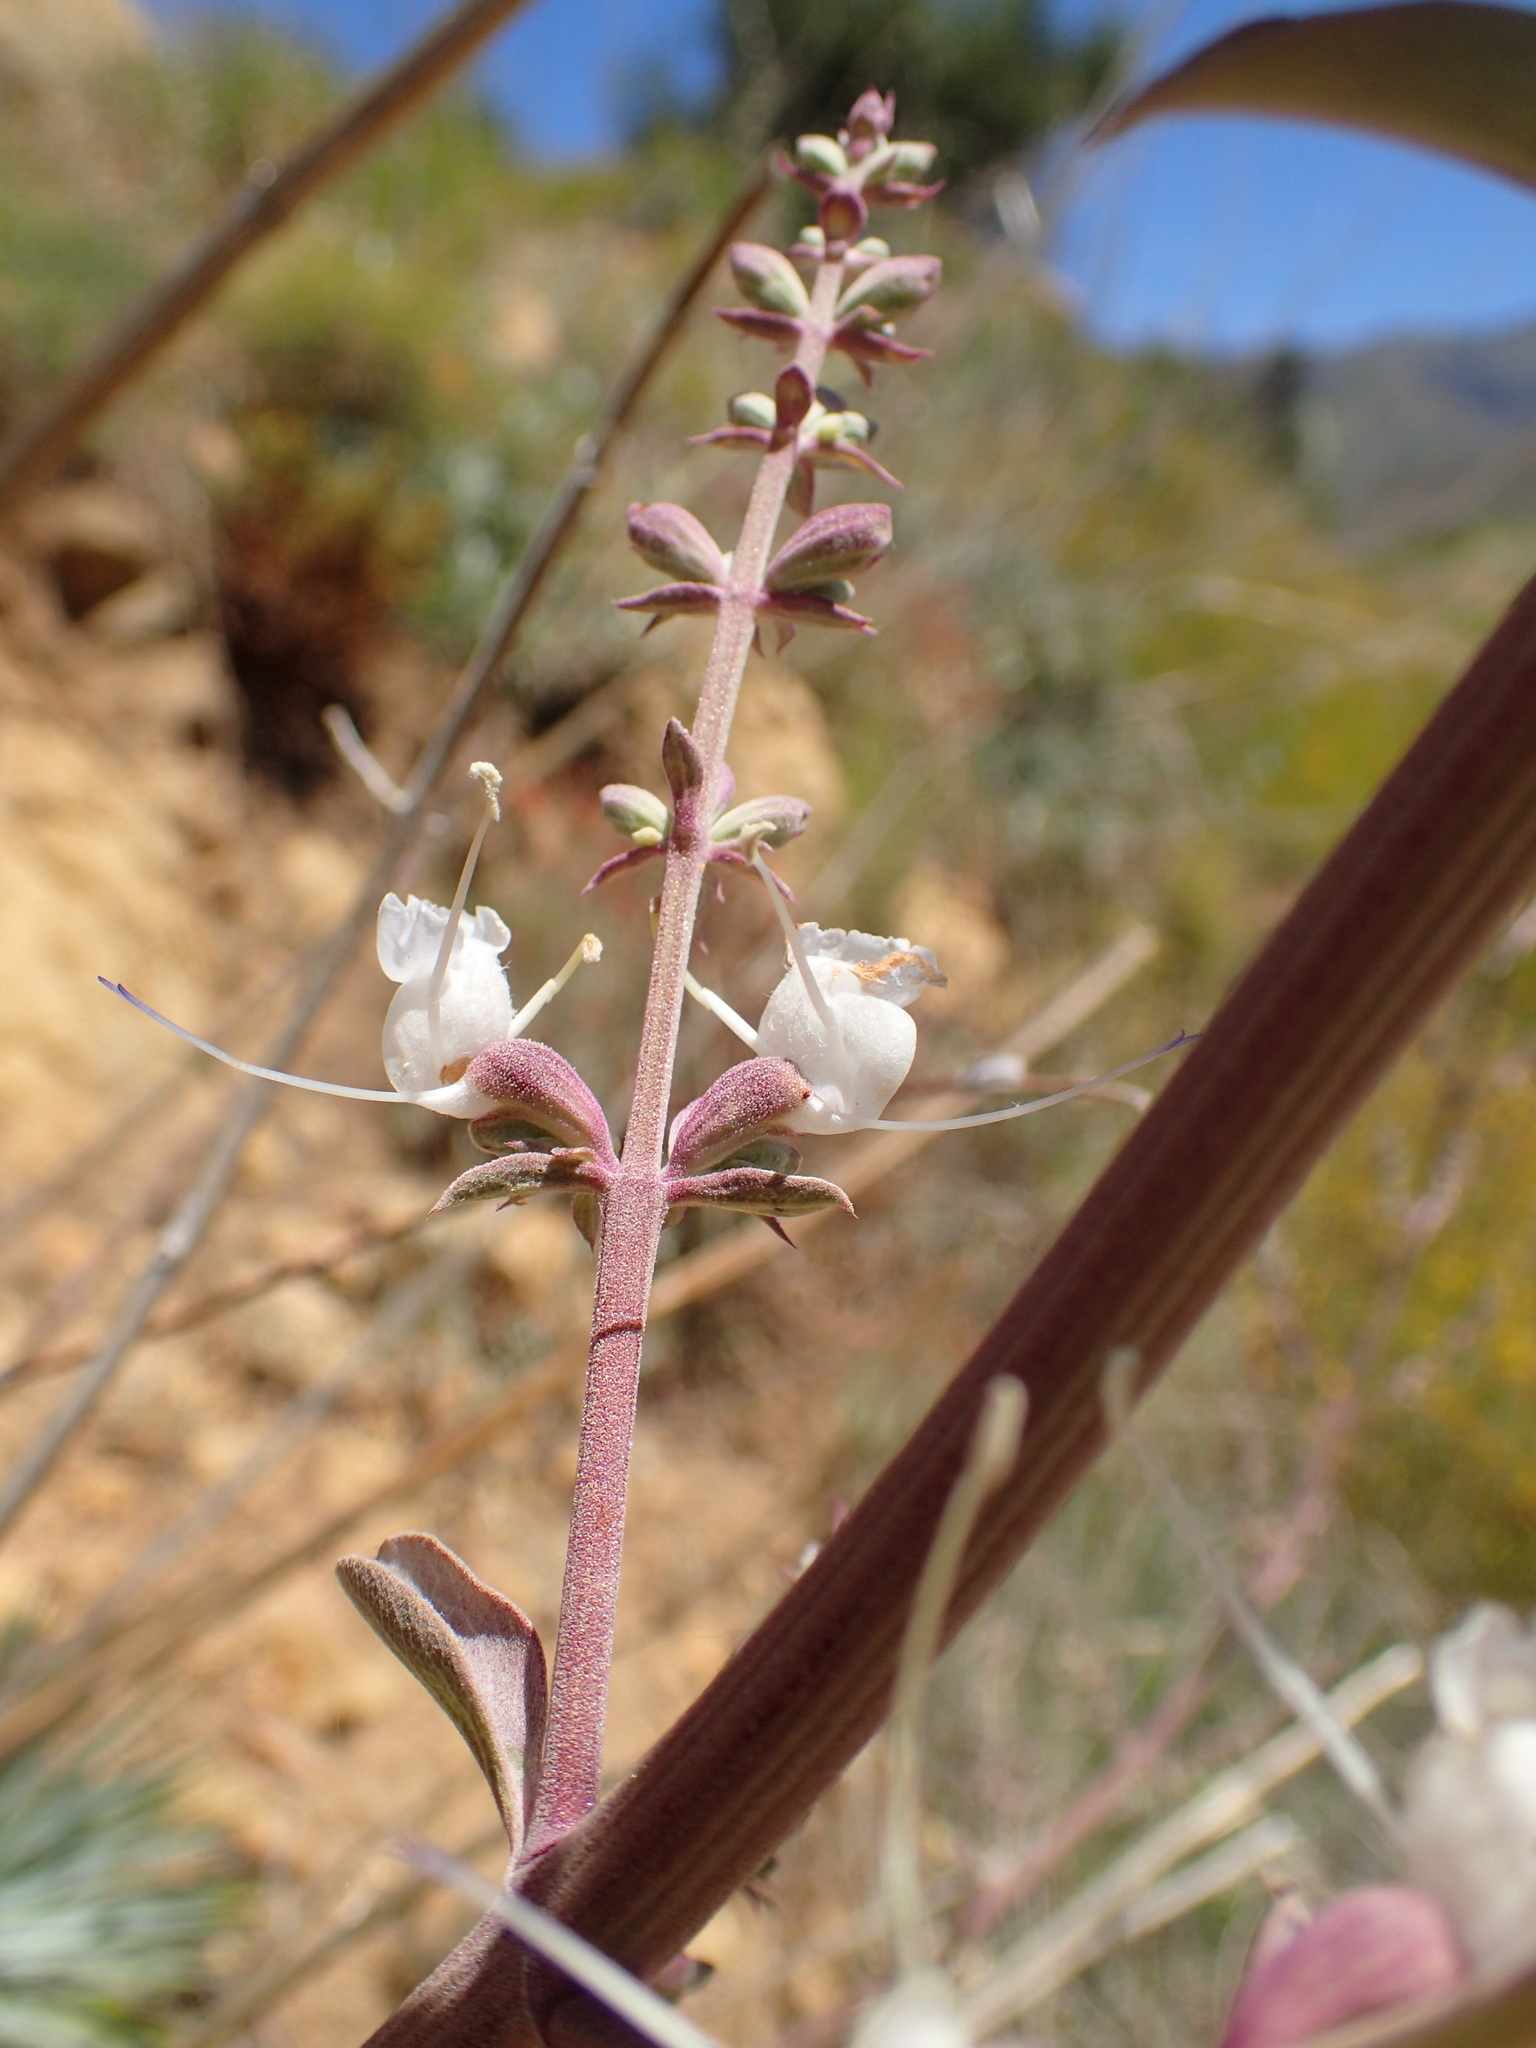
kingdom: Plantae
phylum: Tracheophyta
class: Magnoliopsida
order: Lamiales
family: Lamiaceae
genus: Salvia
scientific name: Salvia apiana
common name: White sage
